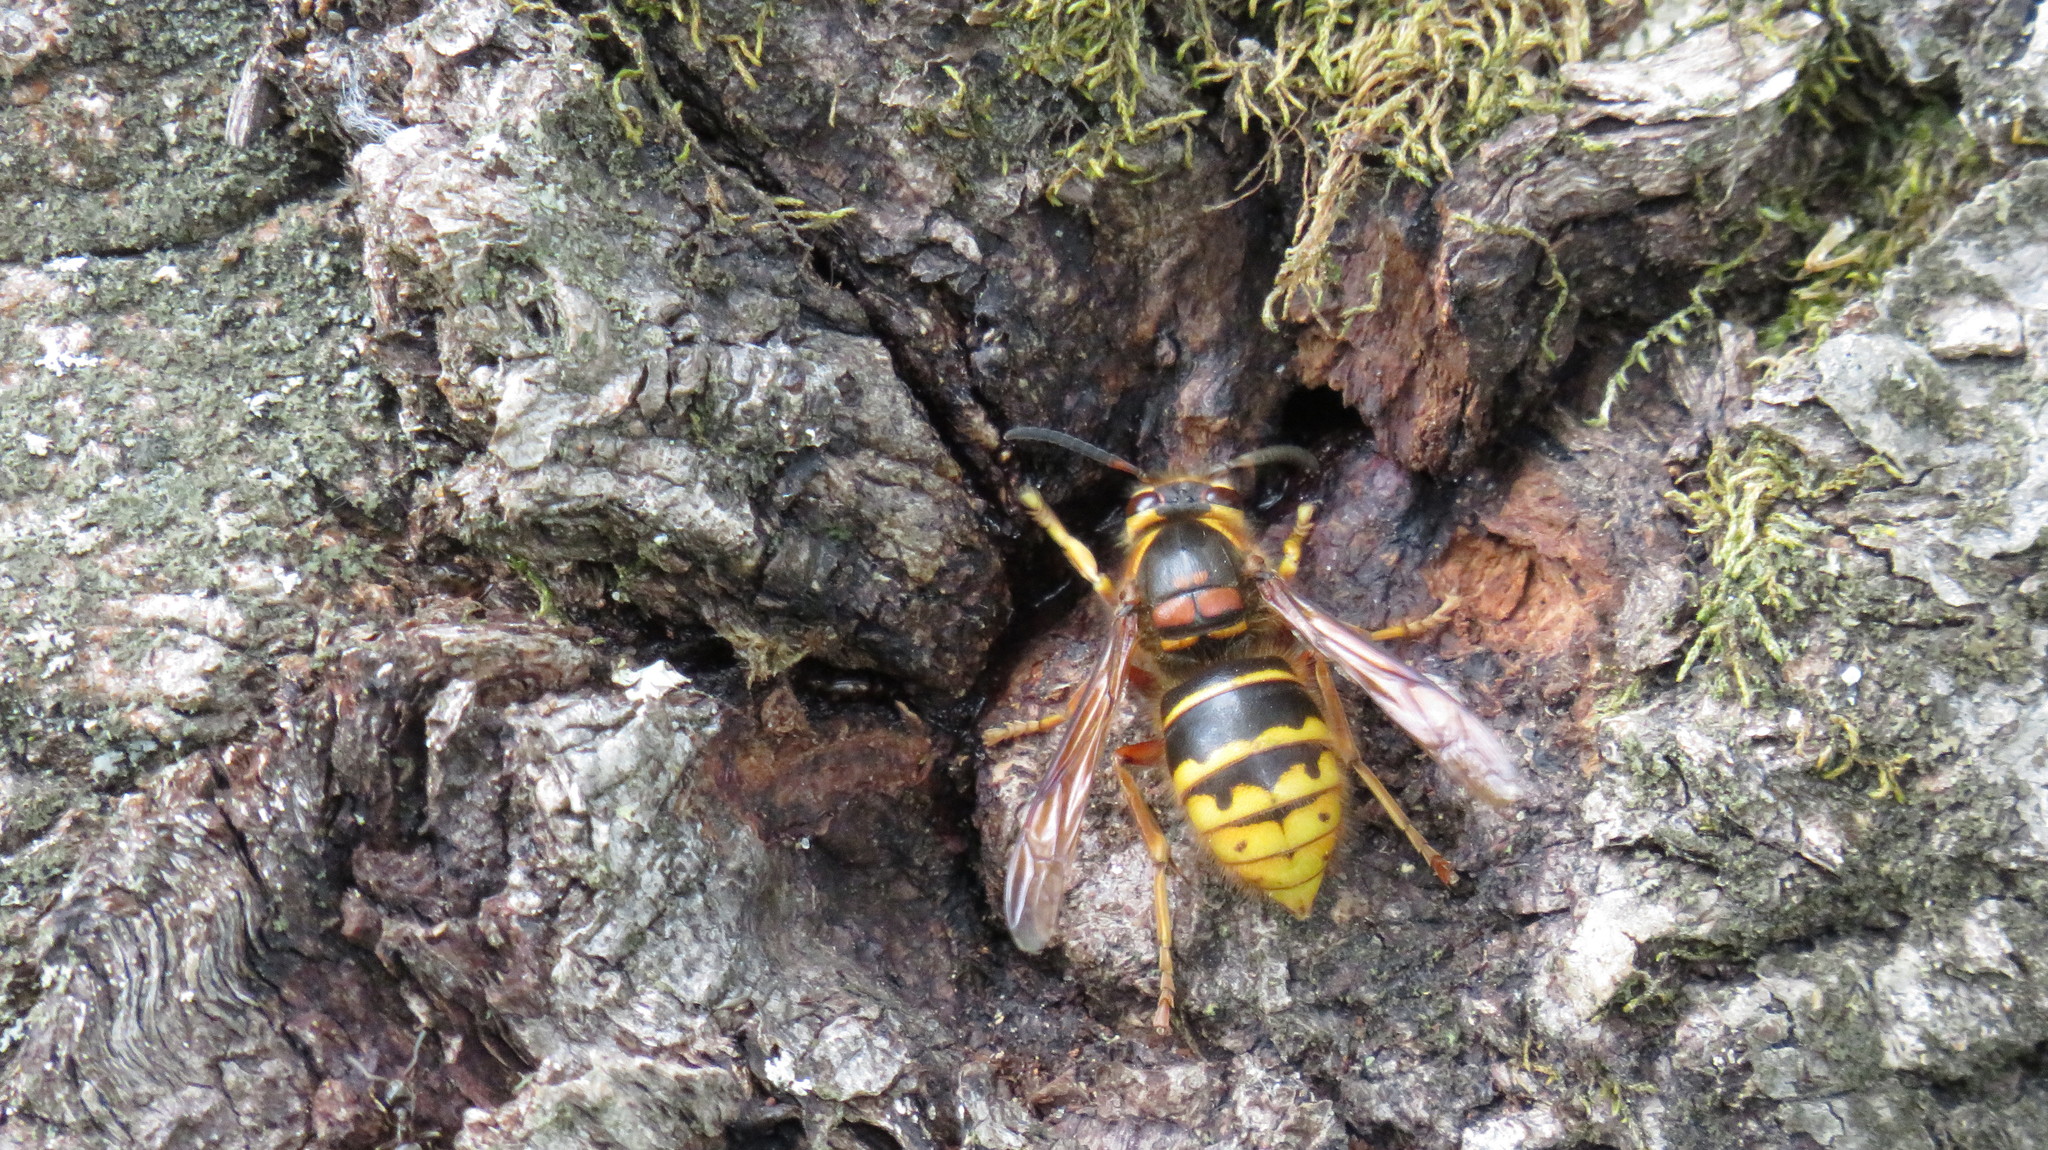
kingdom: Animalia
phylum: Arthropoda
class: Insecta
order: Hymenoptera
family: Vespidae
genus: Dolichovespula
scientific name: Dolichovespula media
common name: Median wasp
